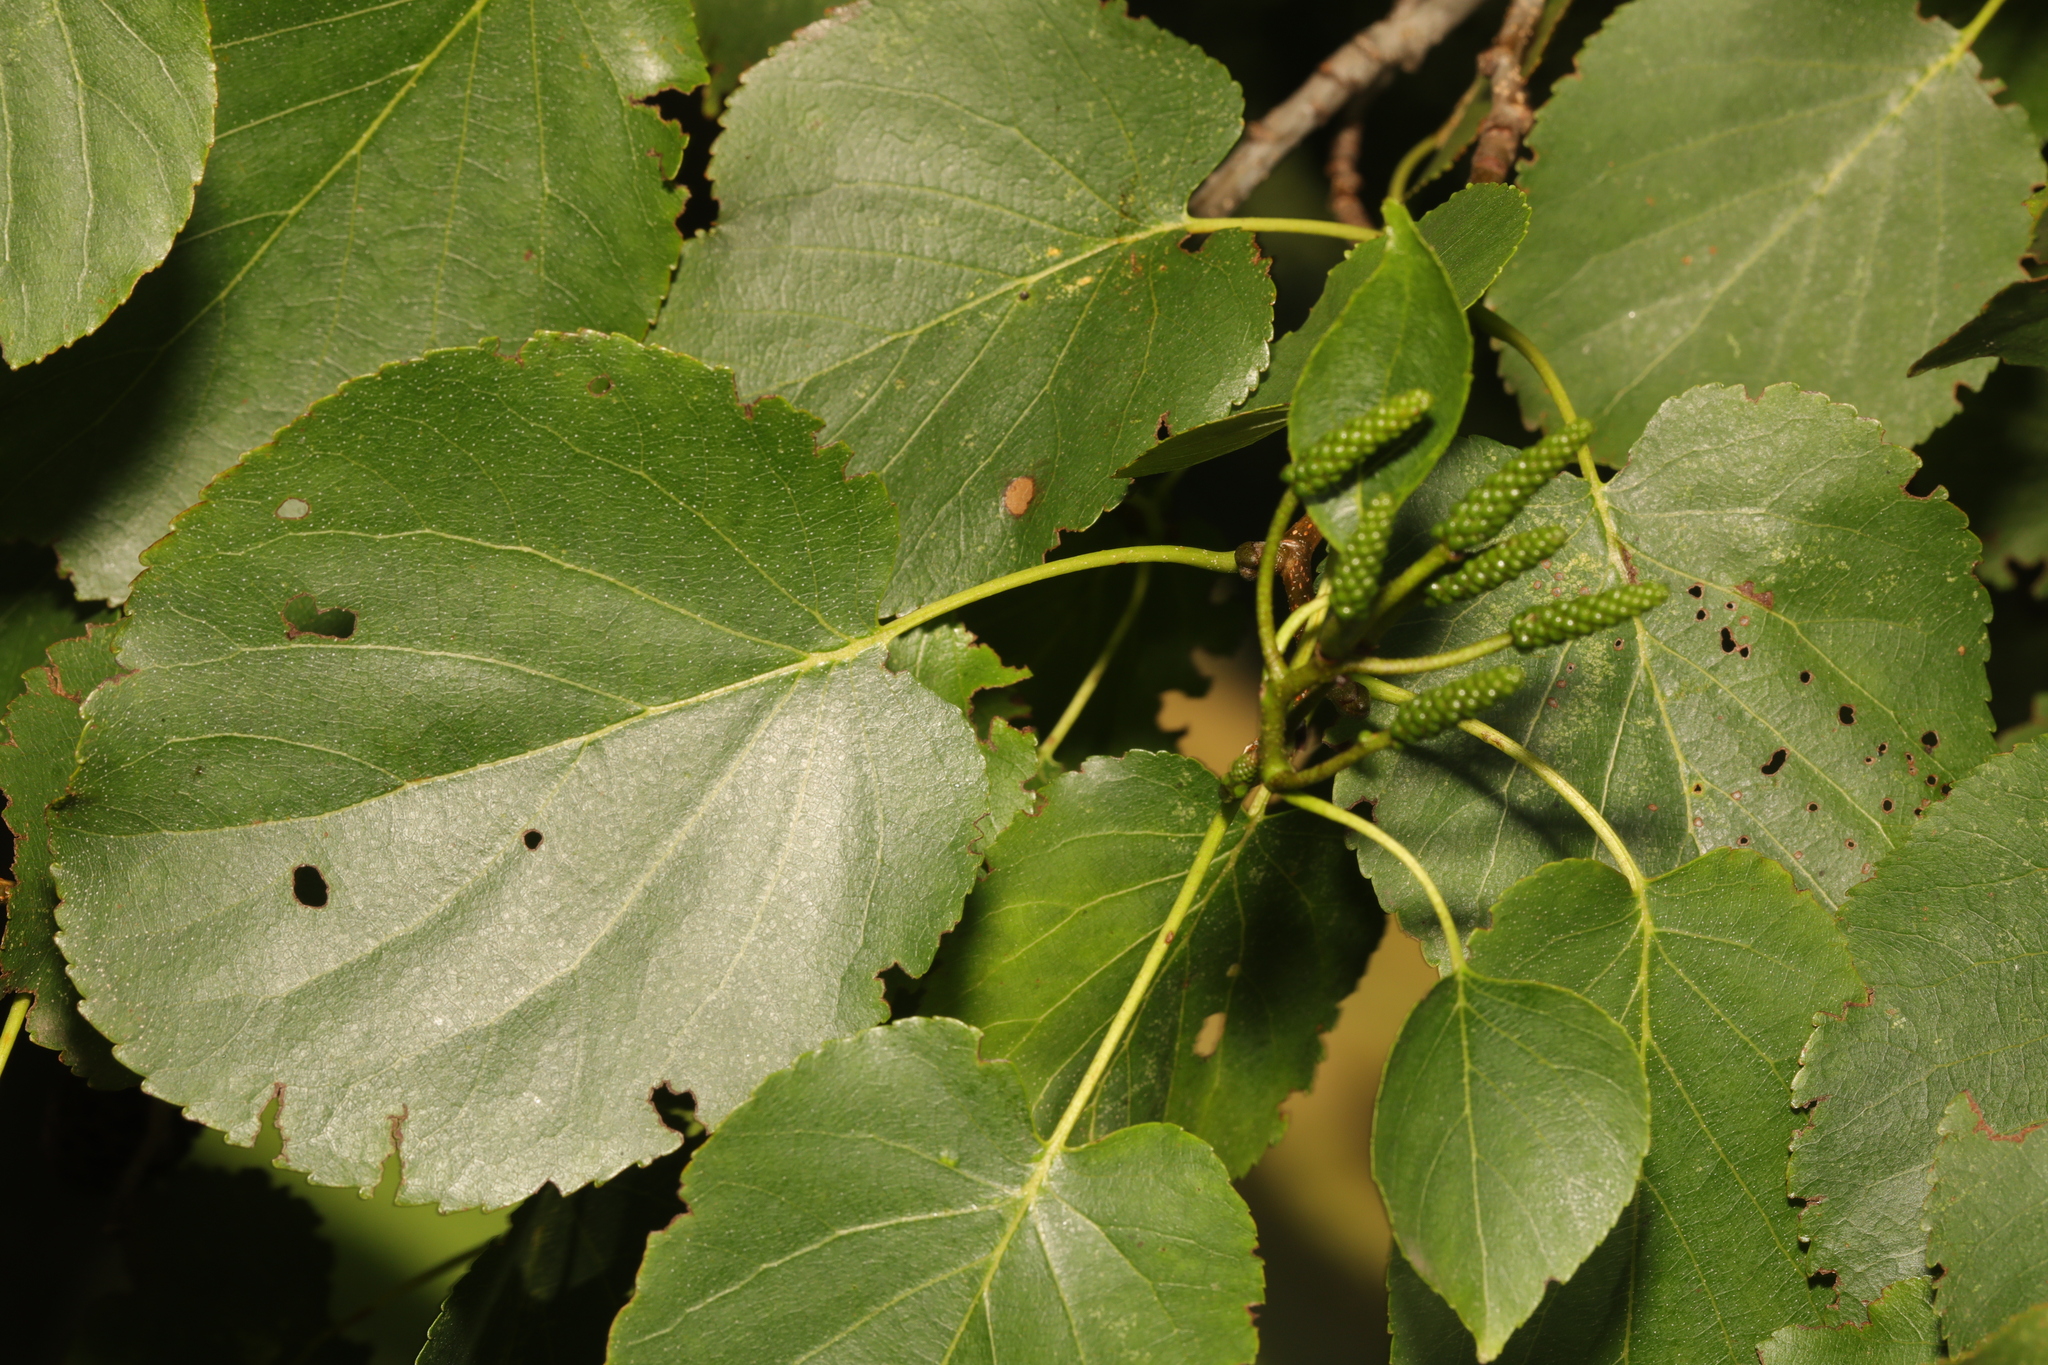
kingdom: Plantae
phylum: Tracheophyta
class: Magnoliopsida
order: Fagales
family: Betulaceae
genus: Alnus
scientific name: Alnus cordata
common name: Italian alder
